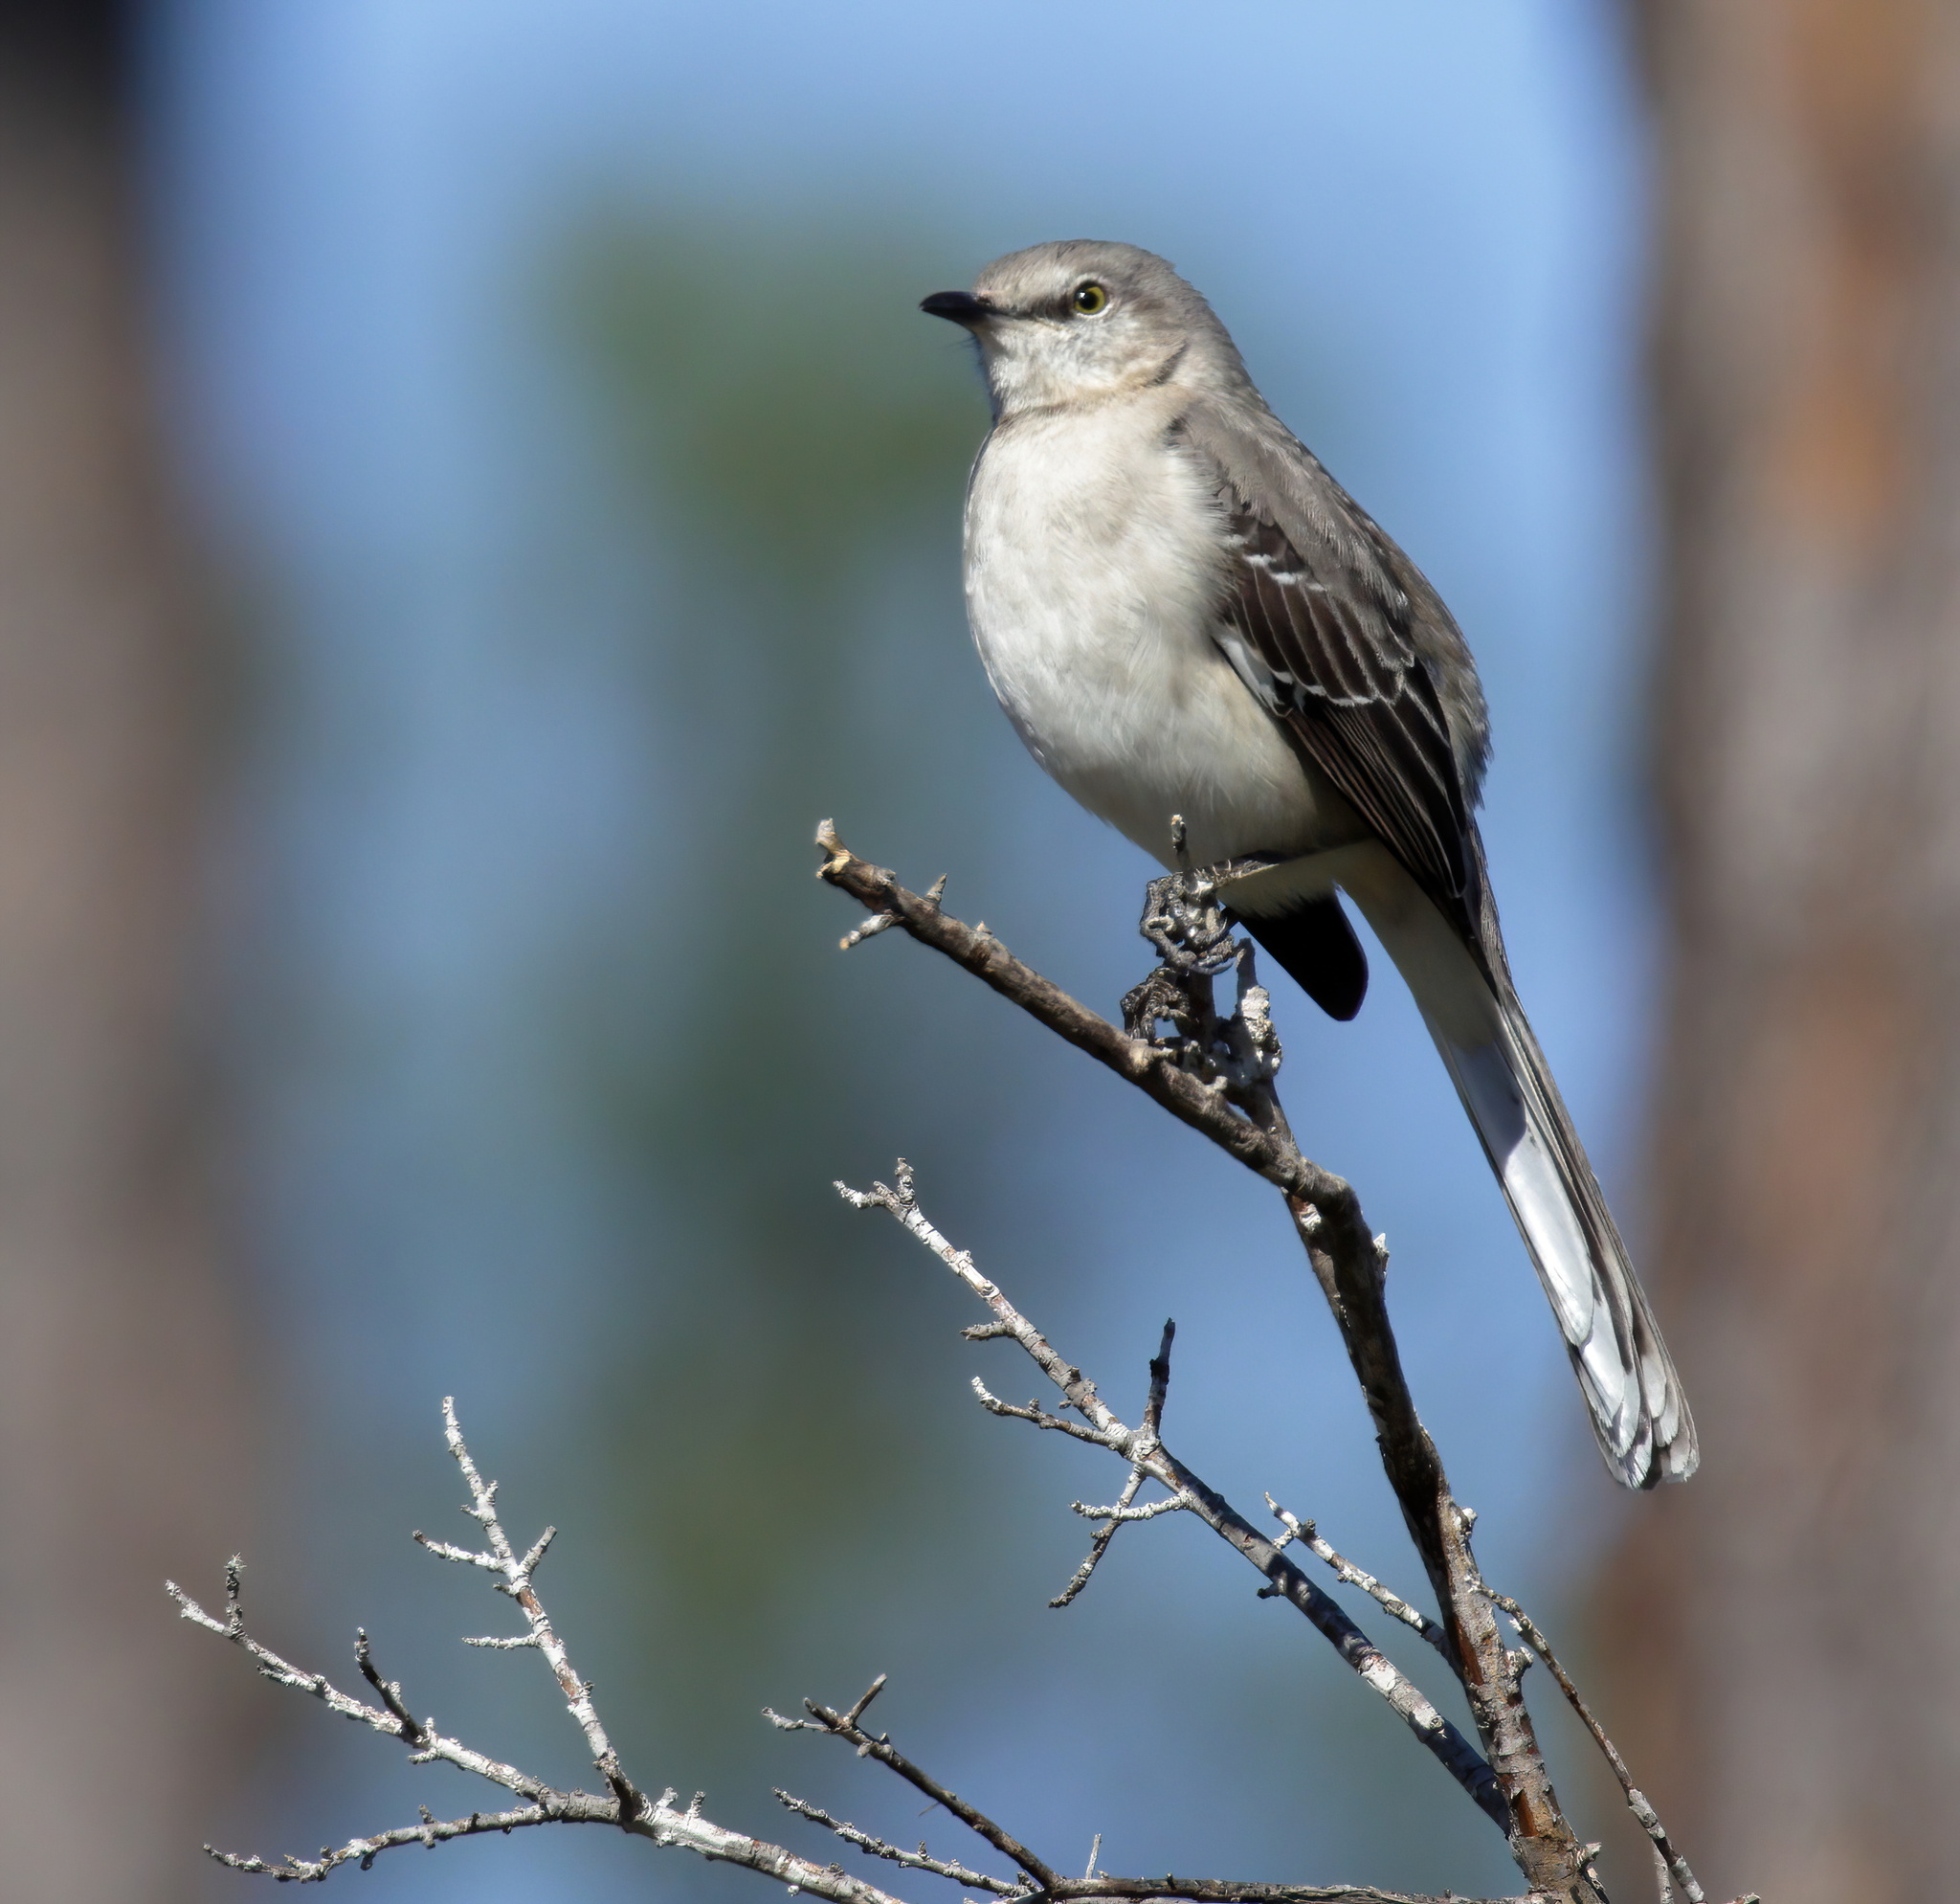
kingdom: Animalia
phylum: Chordata
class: Aves
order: Passeriformes
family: Mimidae
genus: Mimus
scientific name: Mimus polyglottos
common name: Northern mockingbird
